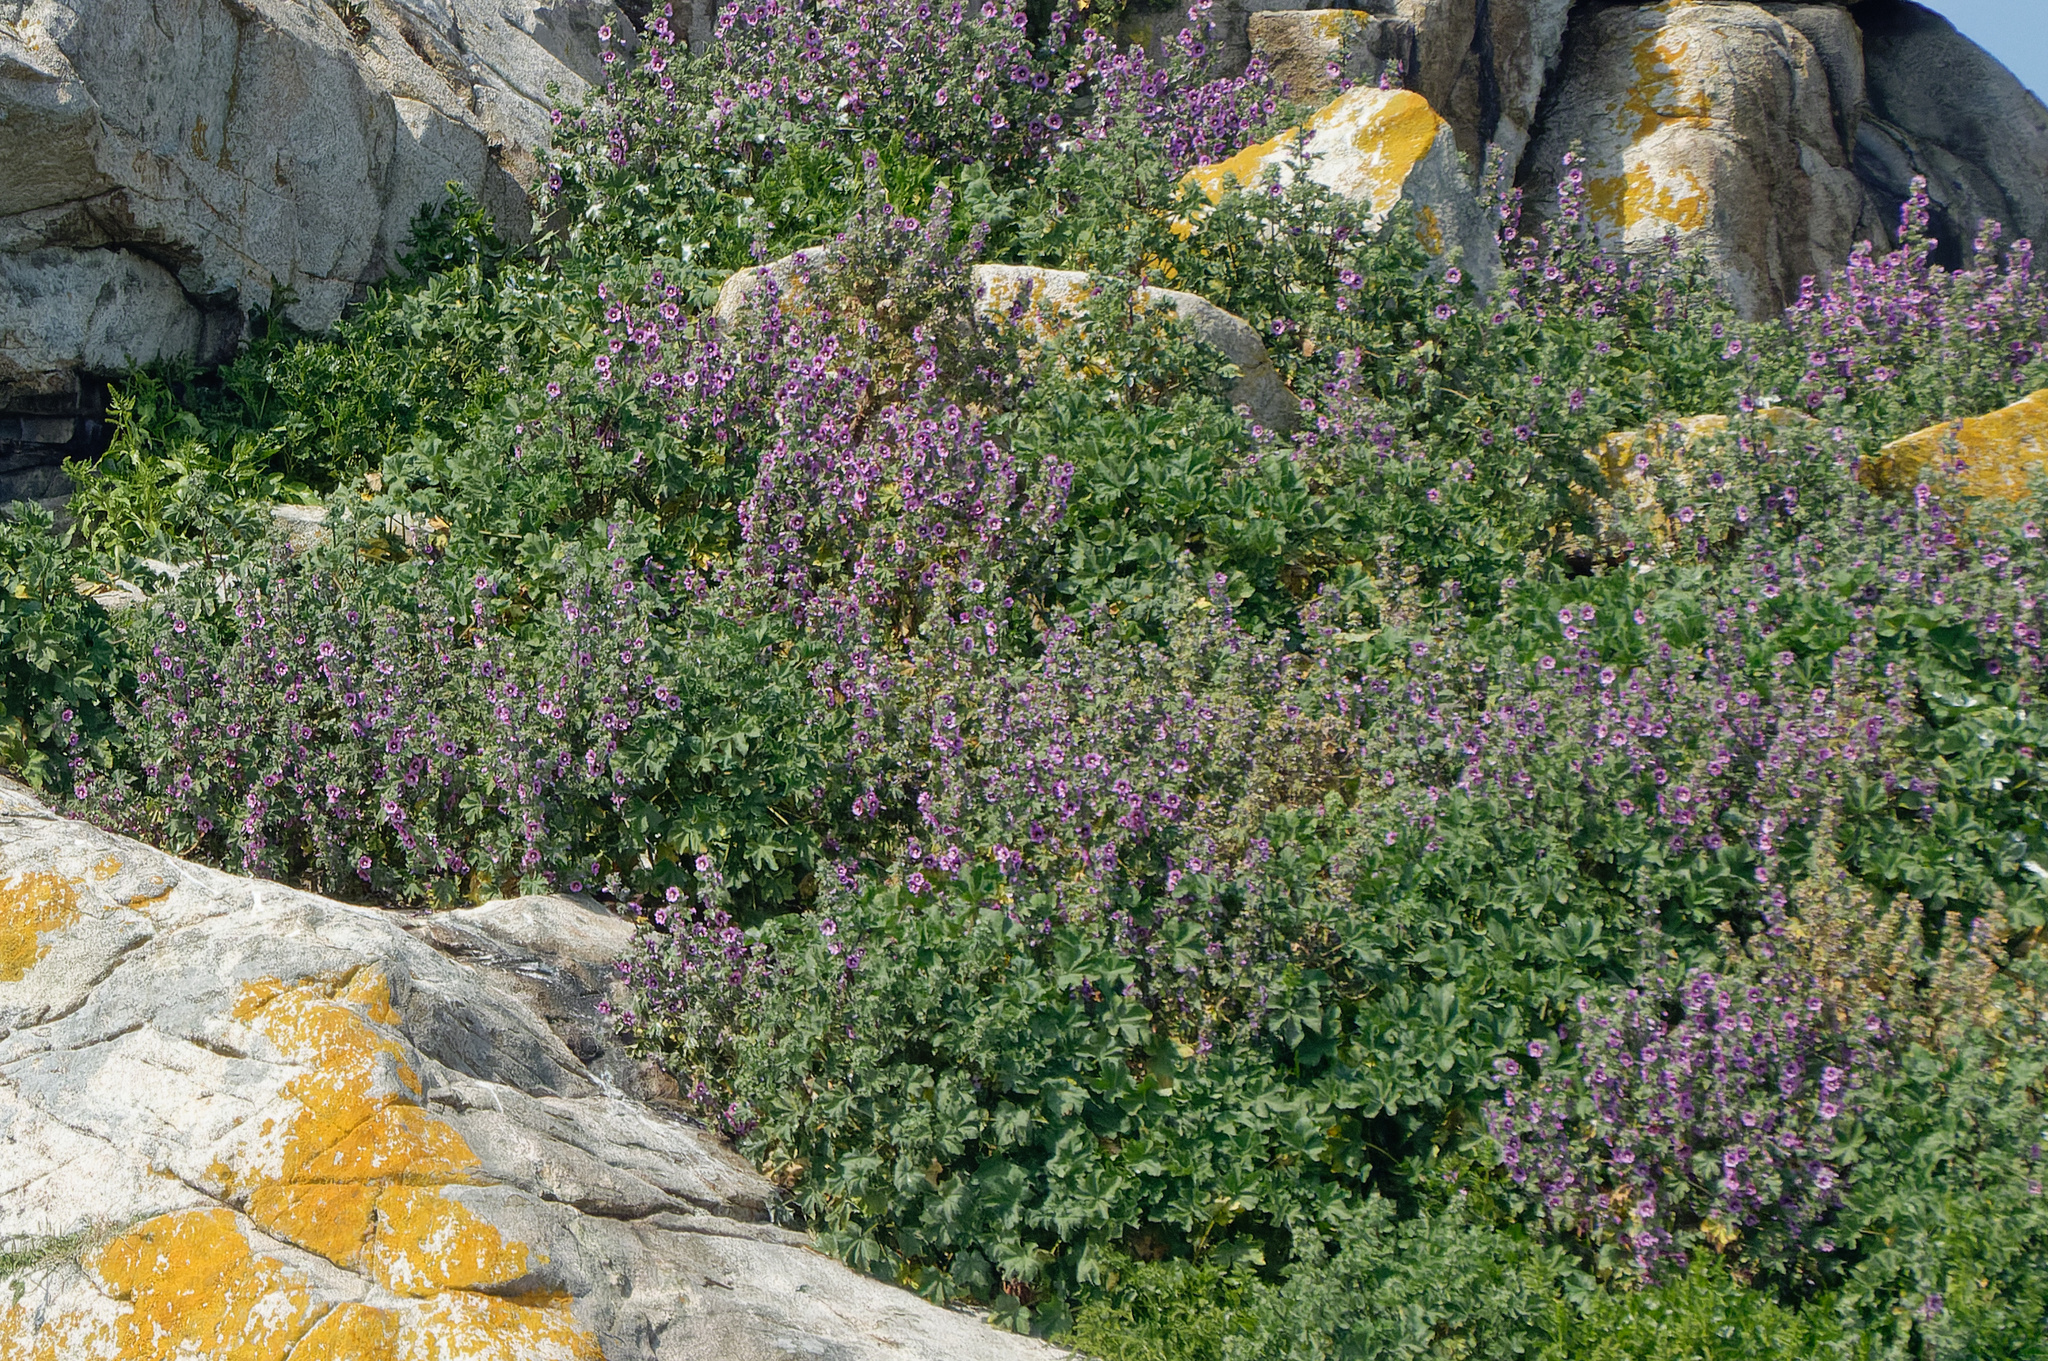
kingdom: Plantae
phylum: Tracheophyta
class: Magnoliopsida
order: Malvales
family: Malvaceae
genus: Malva
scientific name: Malva arborea
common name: Tree mallow
